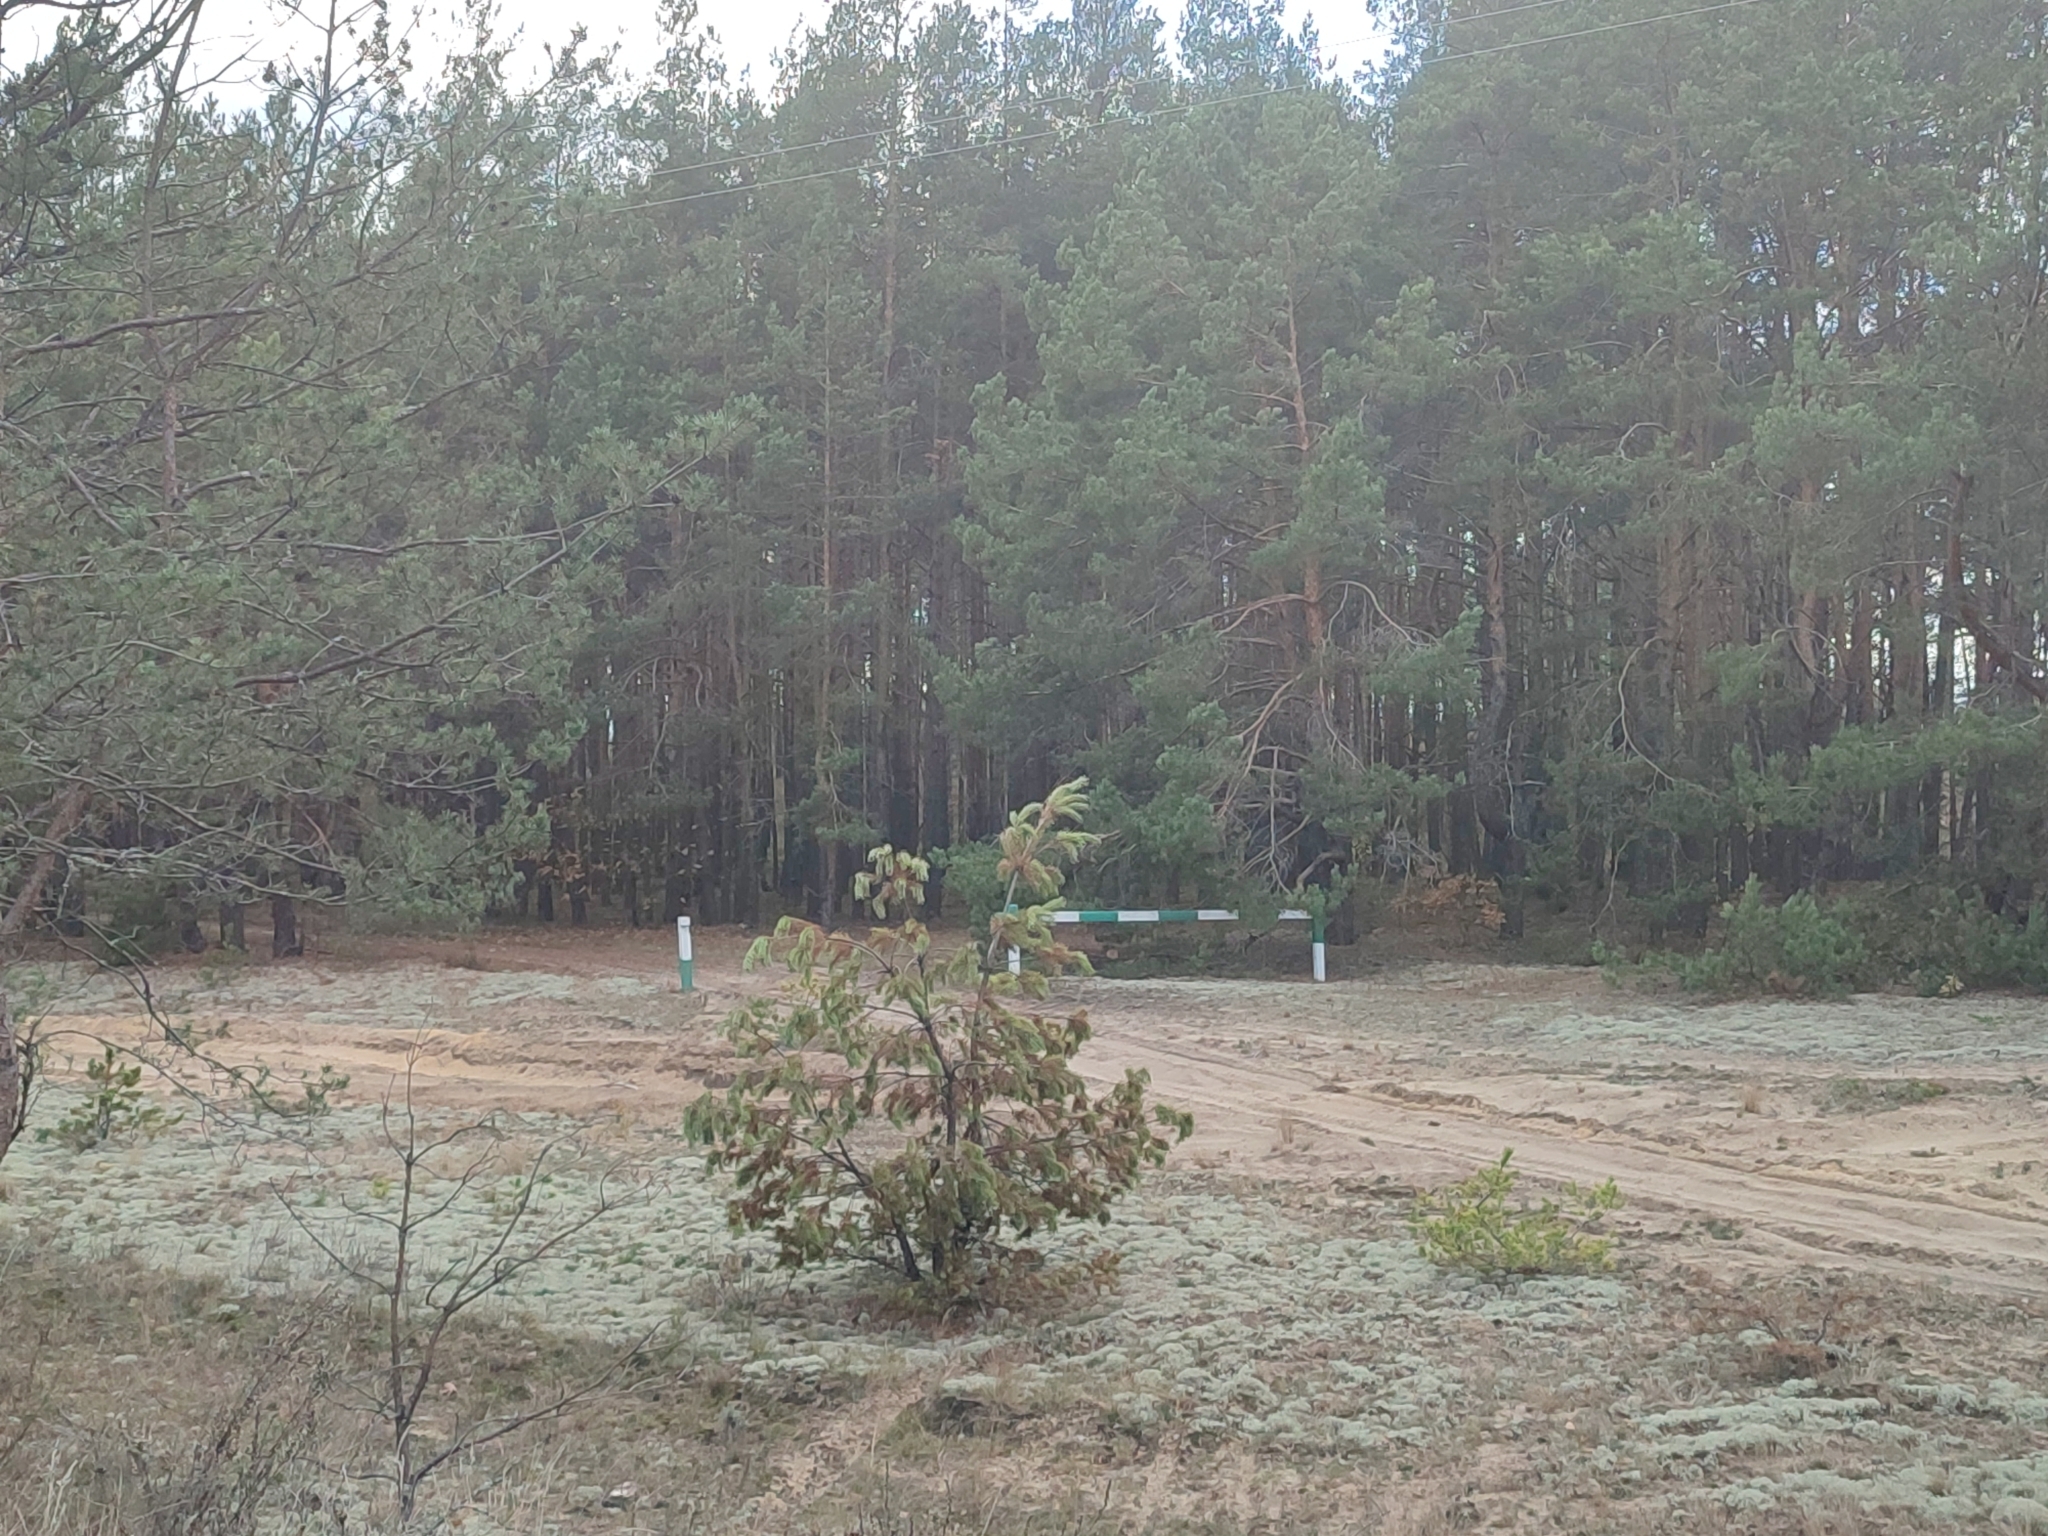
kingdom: Plantae
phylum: Tracheophyta
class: Pinopsida
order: Pinales
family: Pinaceae
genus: Pinus
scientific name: Pinus sylvestris
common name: Scots pine
